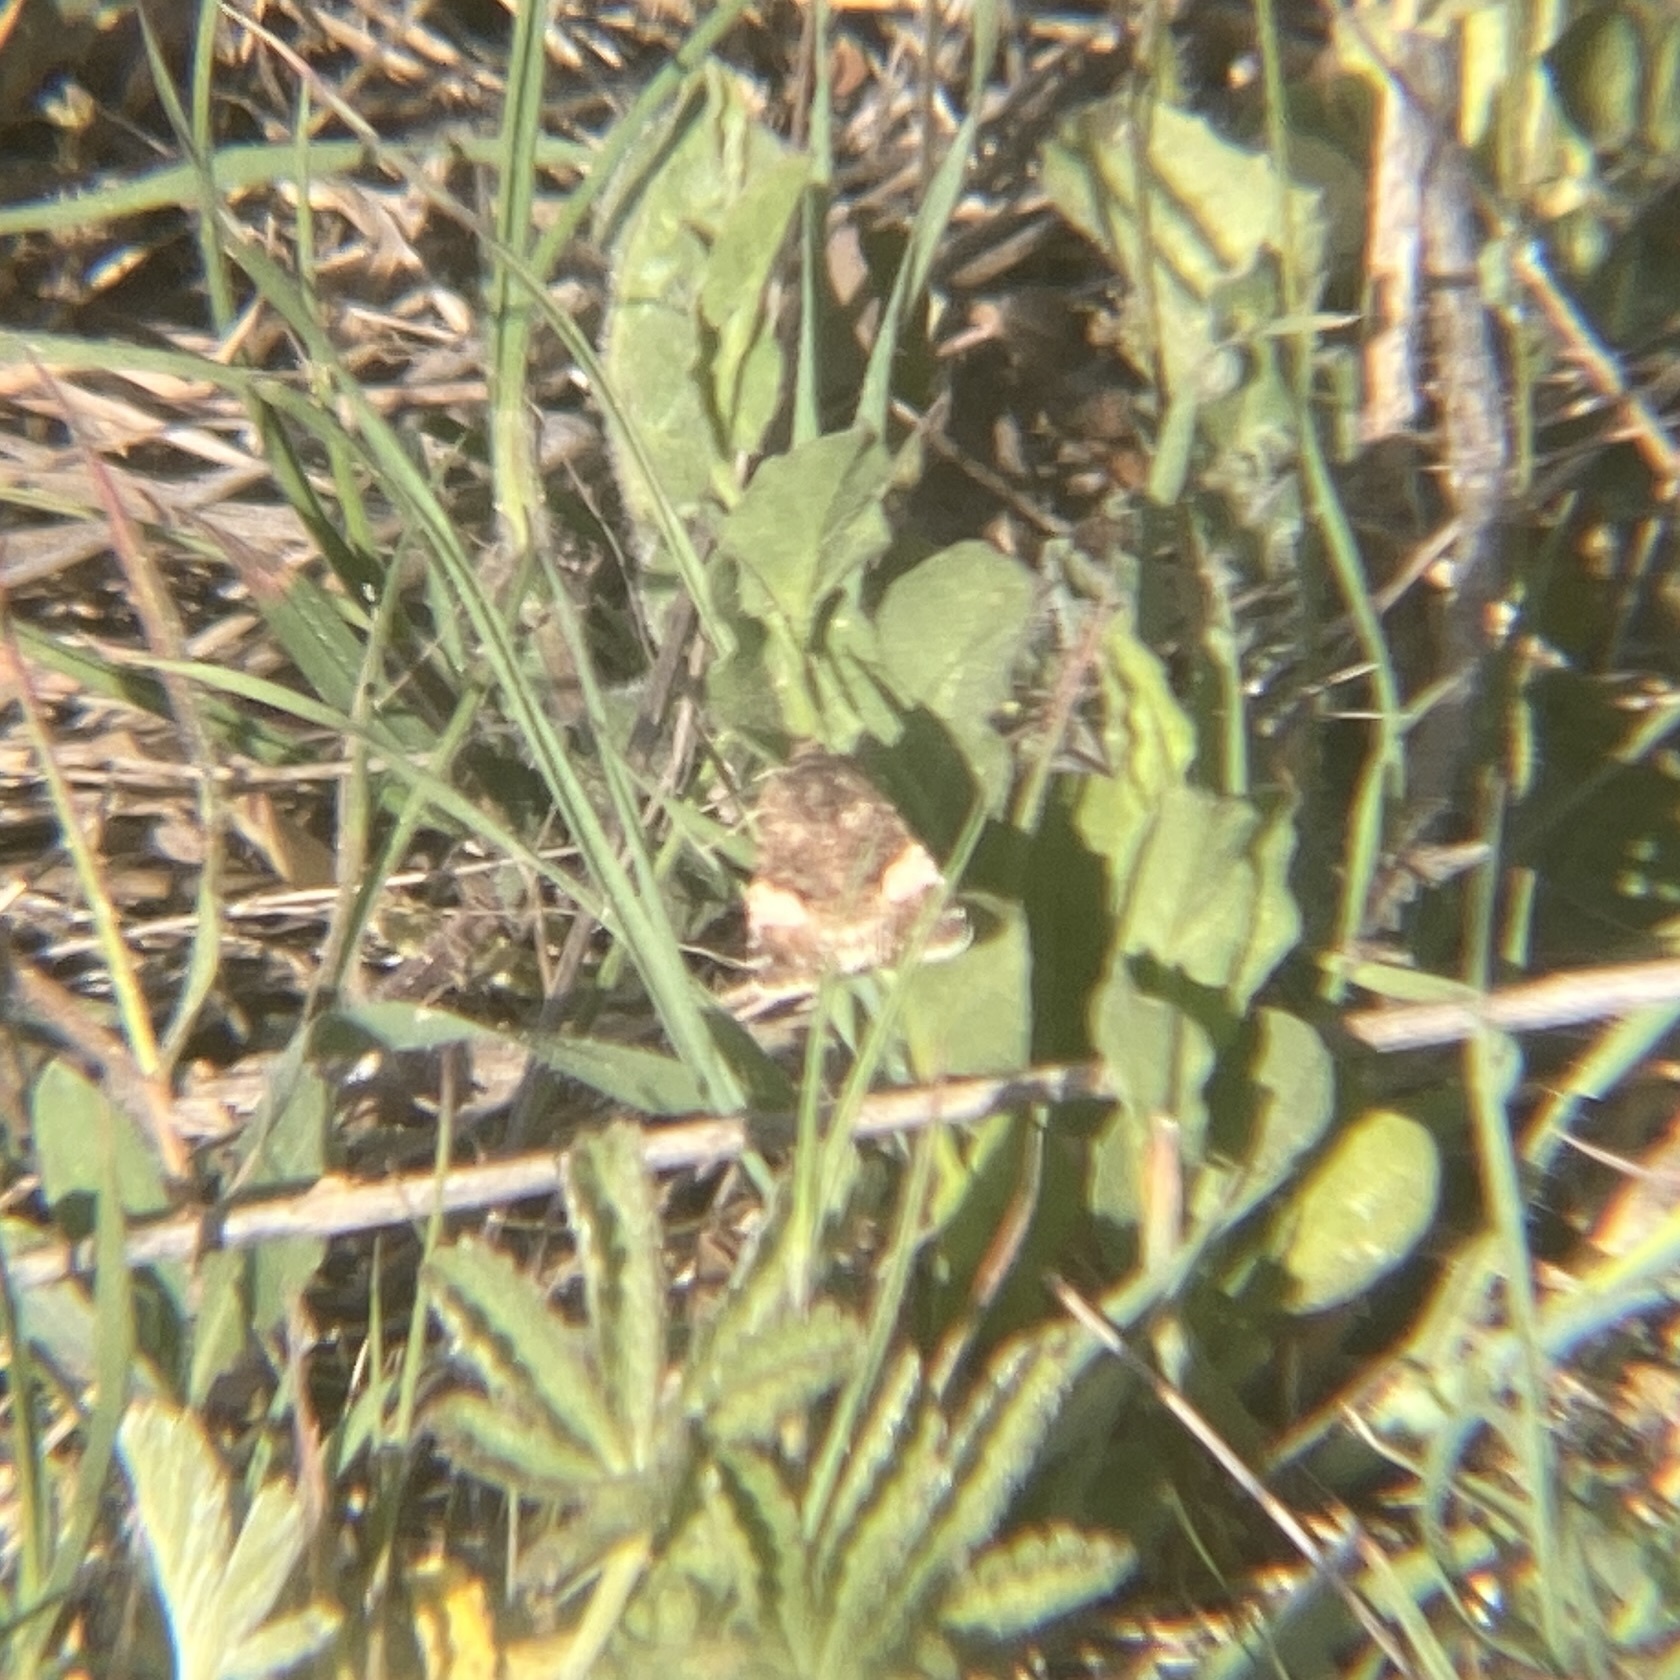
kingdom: Animalia
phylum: Arthropoda
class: Insecta
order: Lepidoptera
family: Erebidae
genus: Tyta
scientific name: Tyta luctuosa
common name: Four-spotted
